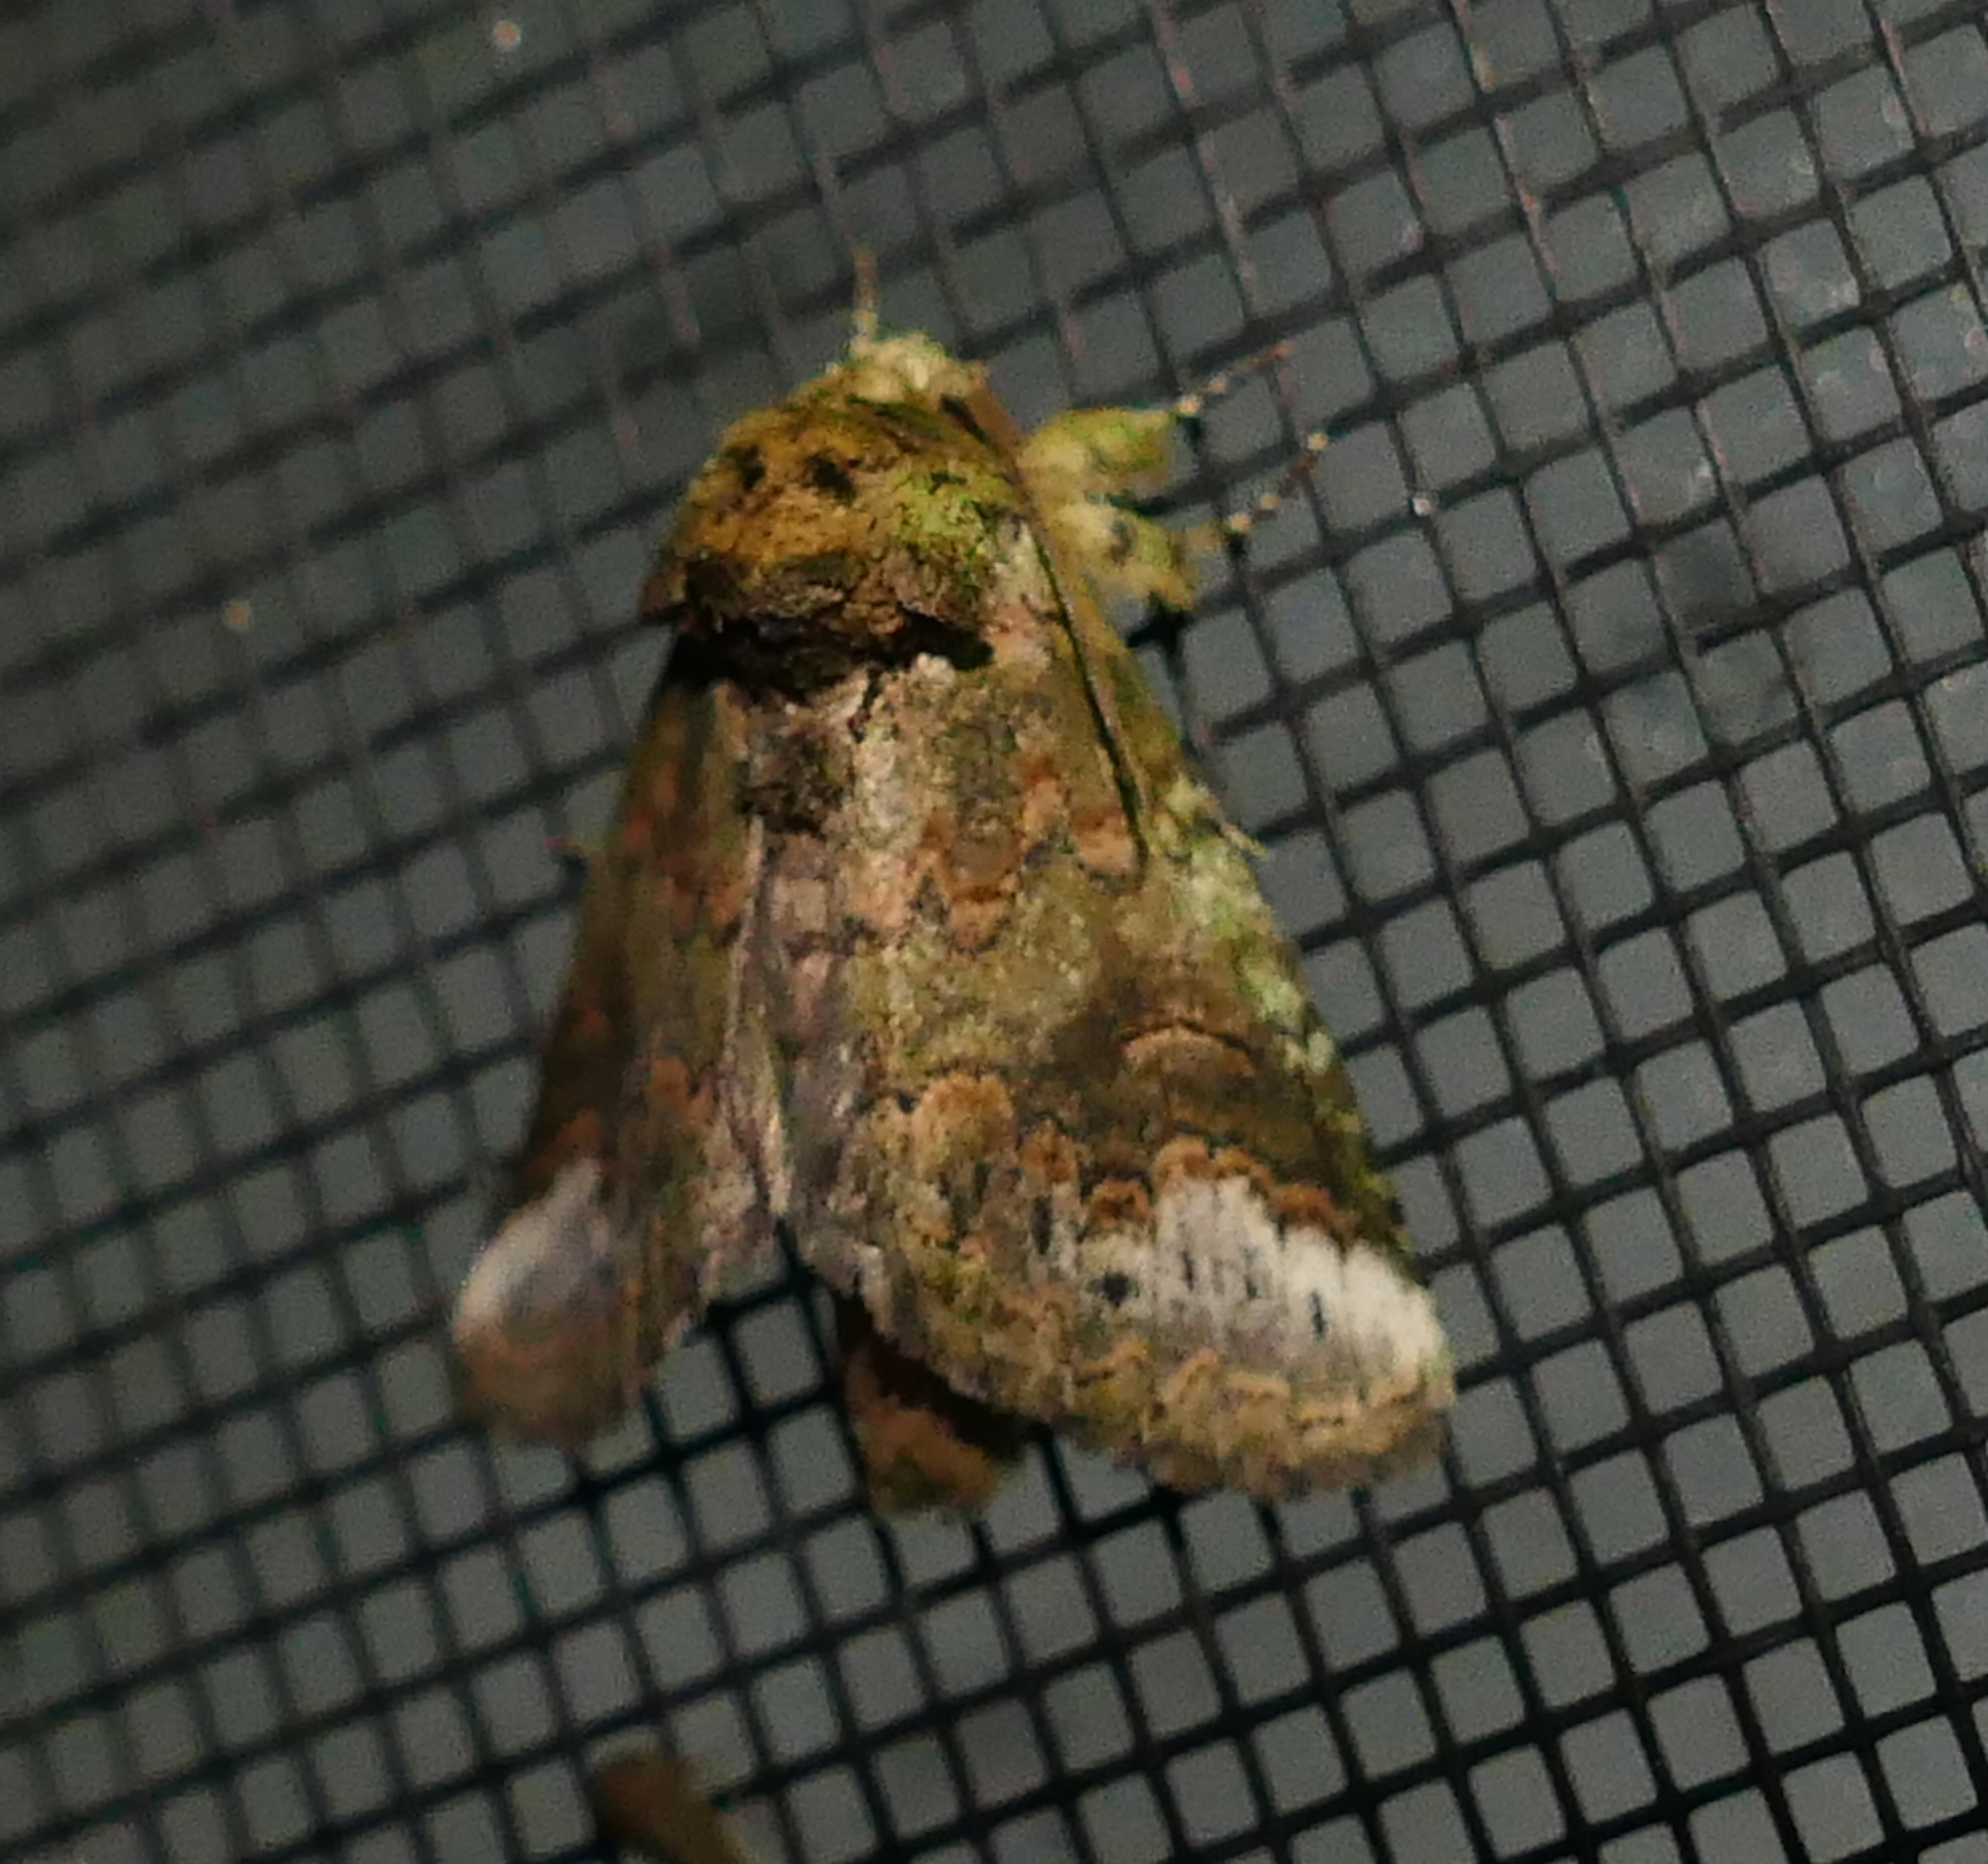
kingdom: Animalia
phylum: Arthropoda
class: Insecta
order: Lepidoptera
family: Notodontidae
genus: Rifargia
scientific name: Rifargia
